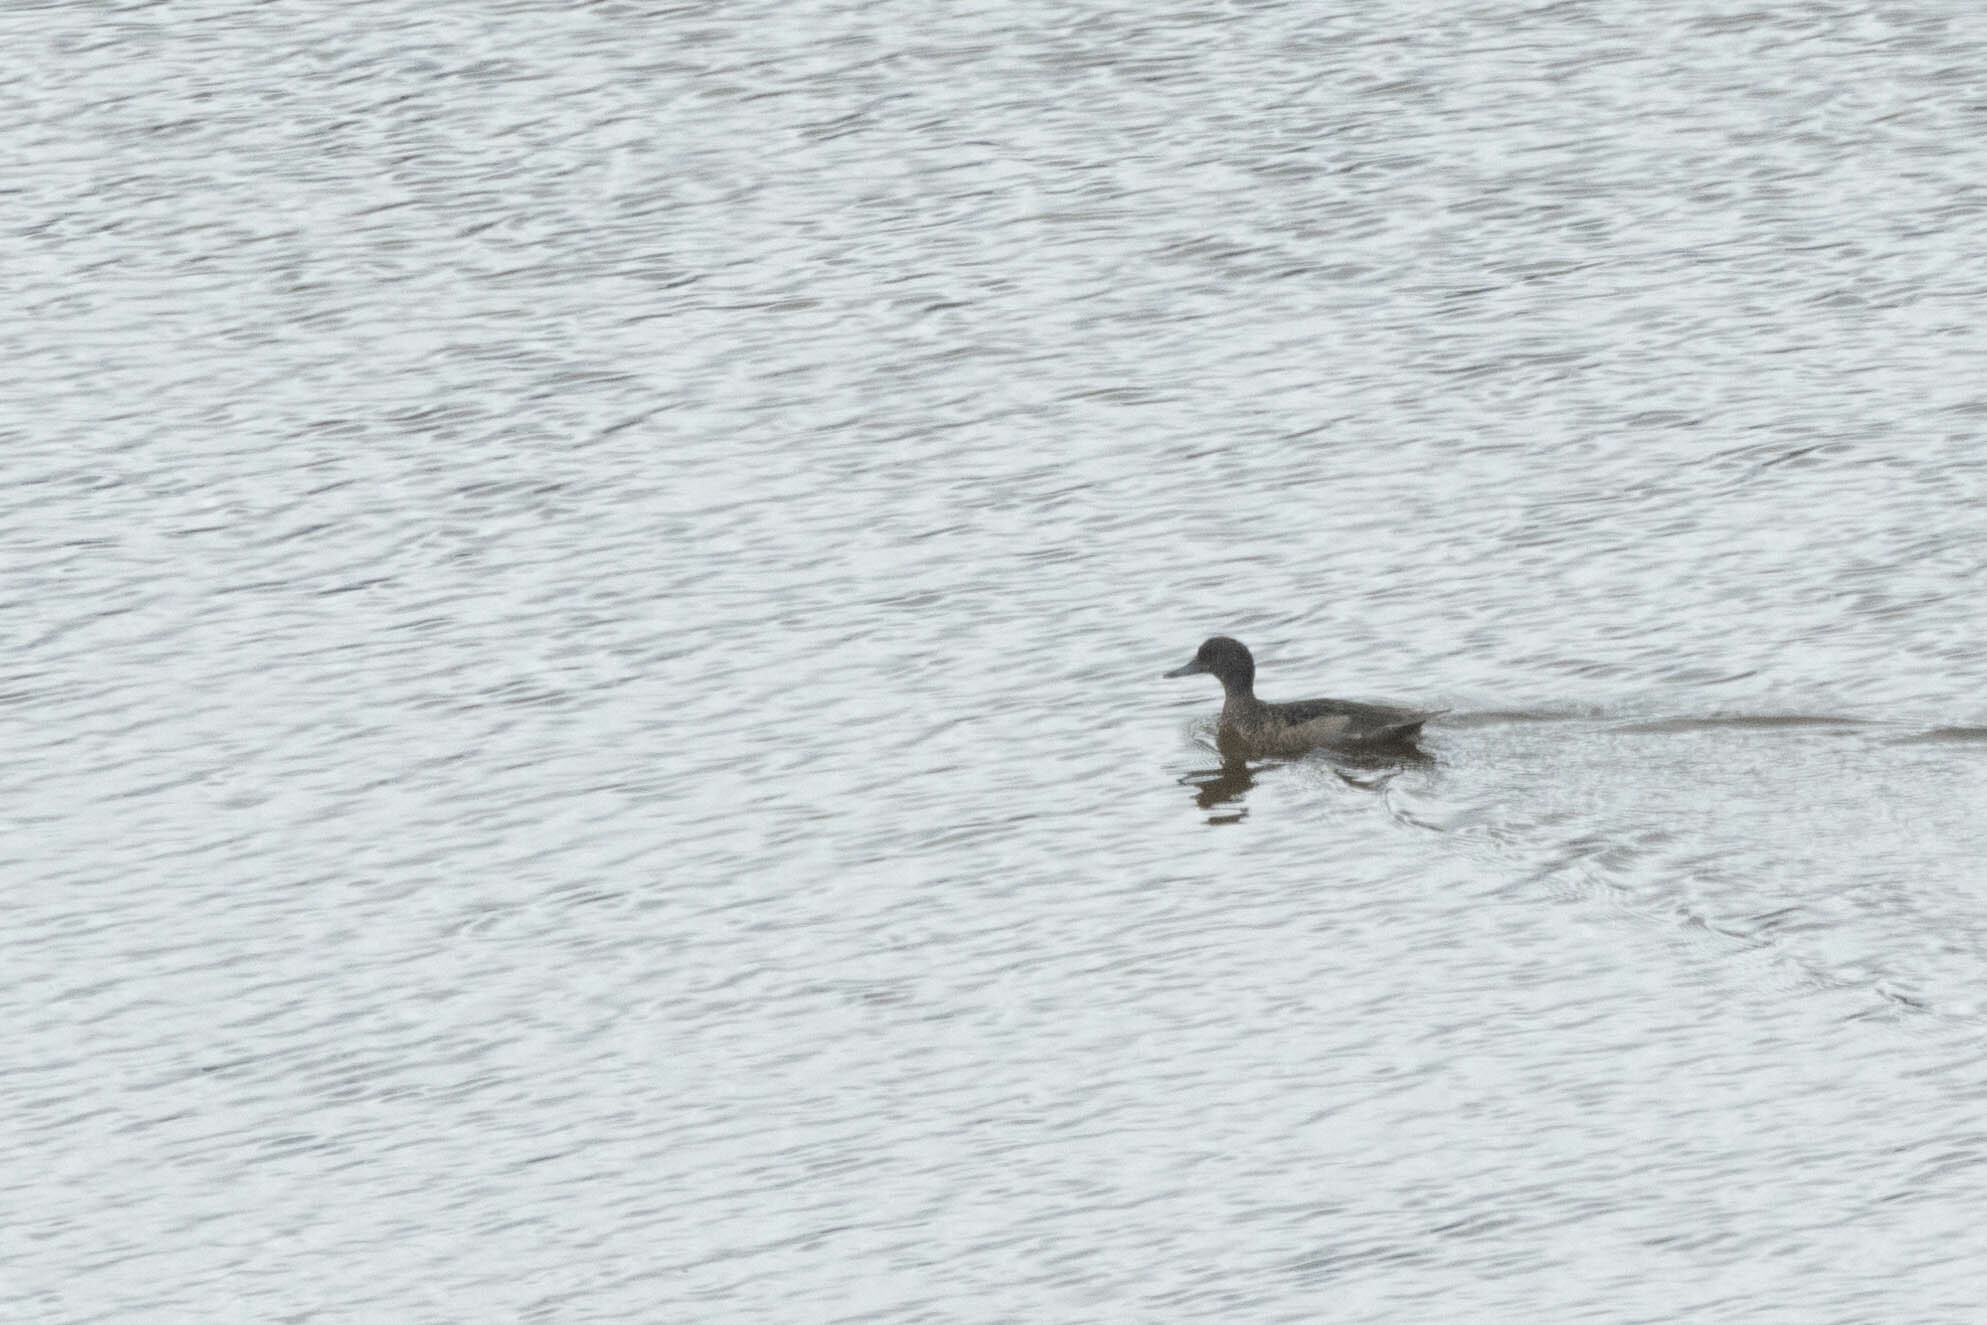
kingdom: Animalia
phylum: Chordata
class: Aves
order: Anseriformes
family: Anatidae
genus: Anas
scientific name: Anas andium
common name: Andean teal
